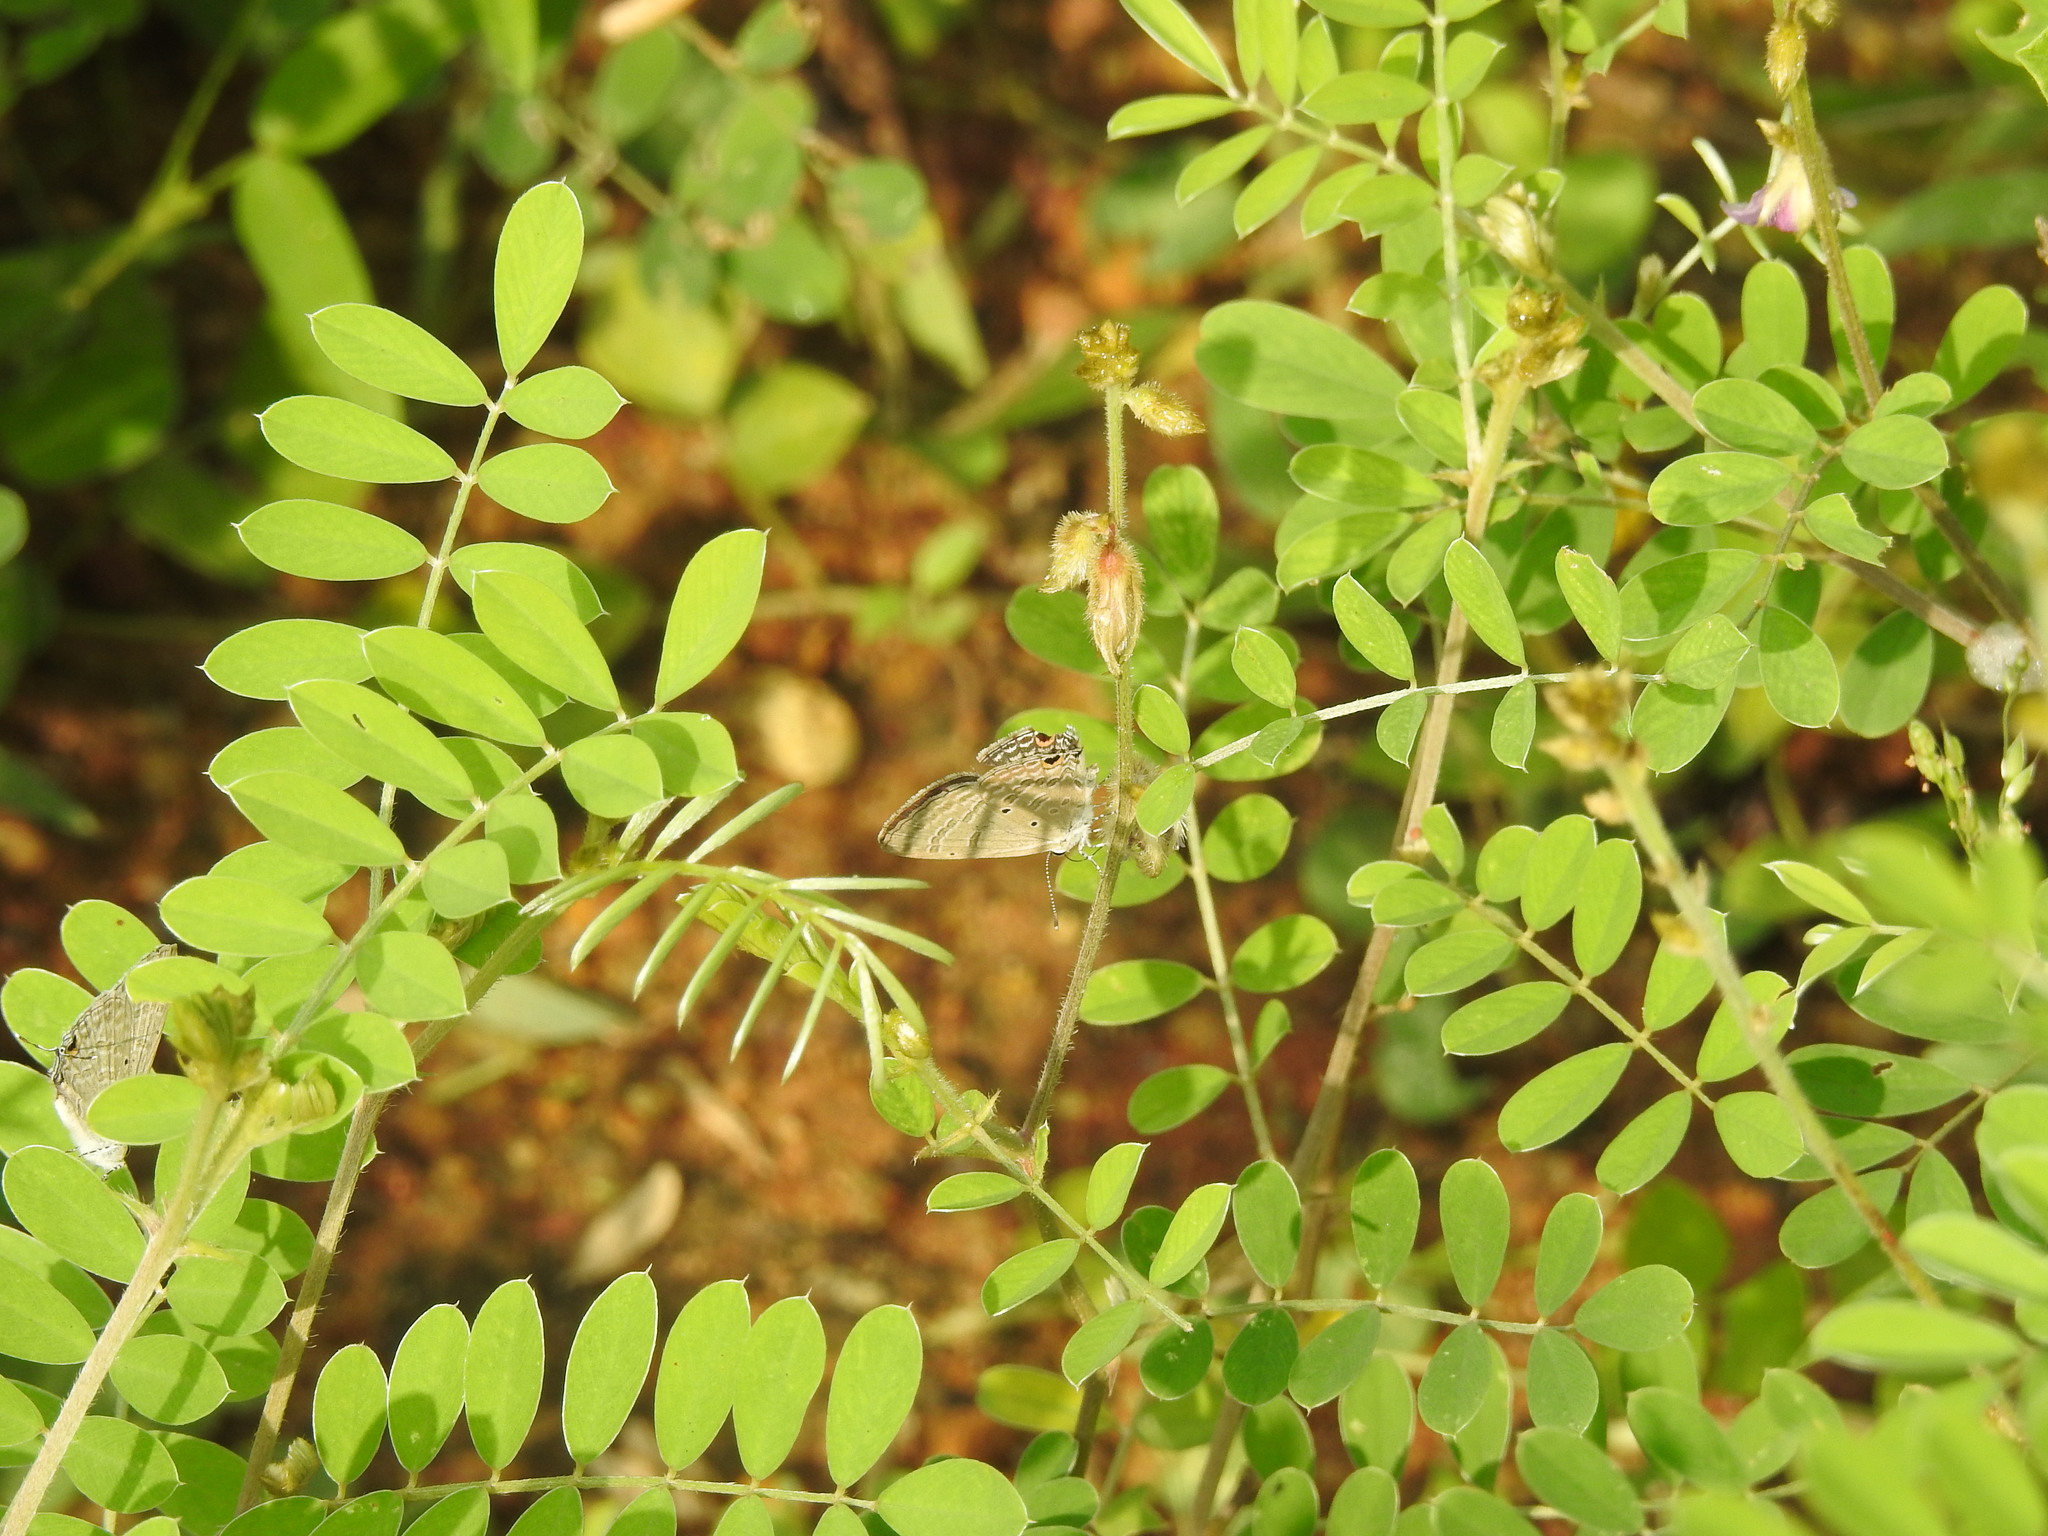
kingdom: Animalia
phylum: Arthropoda
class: Insecta
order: Lepidoptera
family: Lycaenidae
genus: Catochrysops
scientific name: Catochrysops strabo
